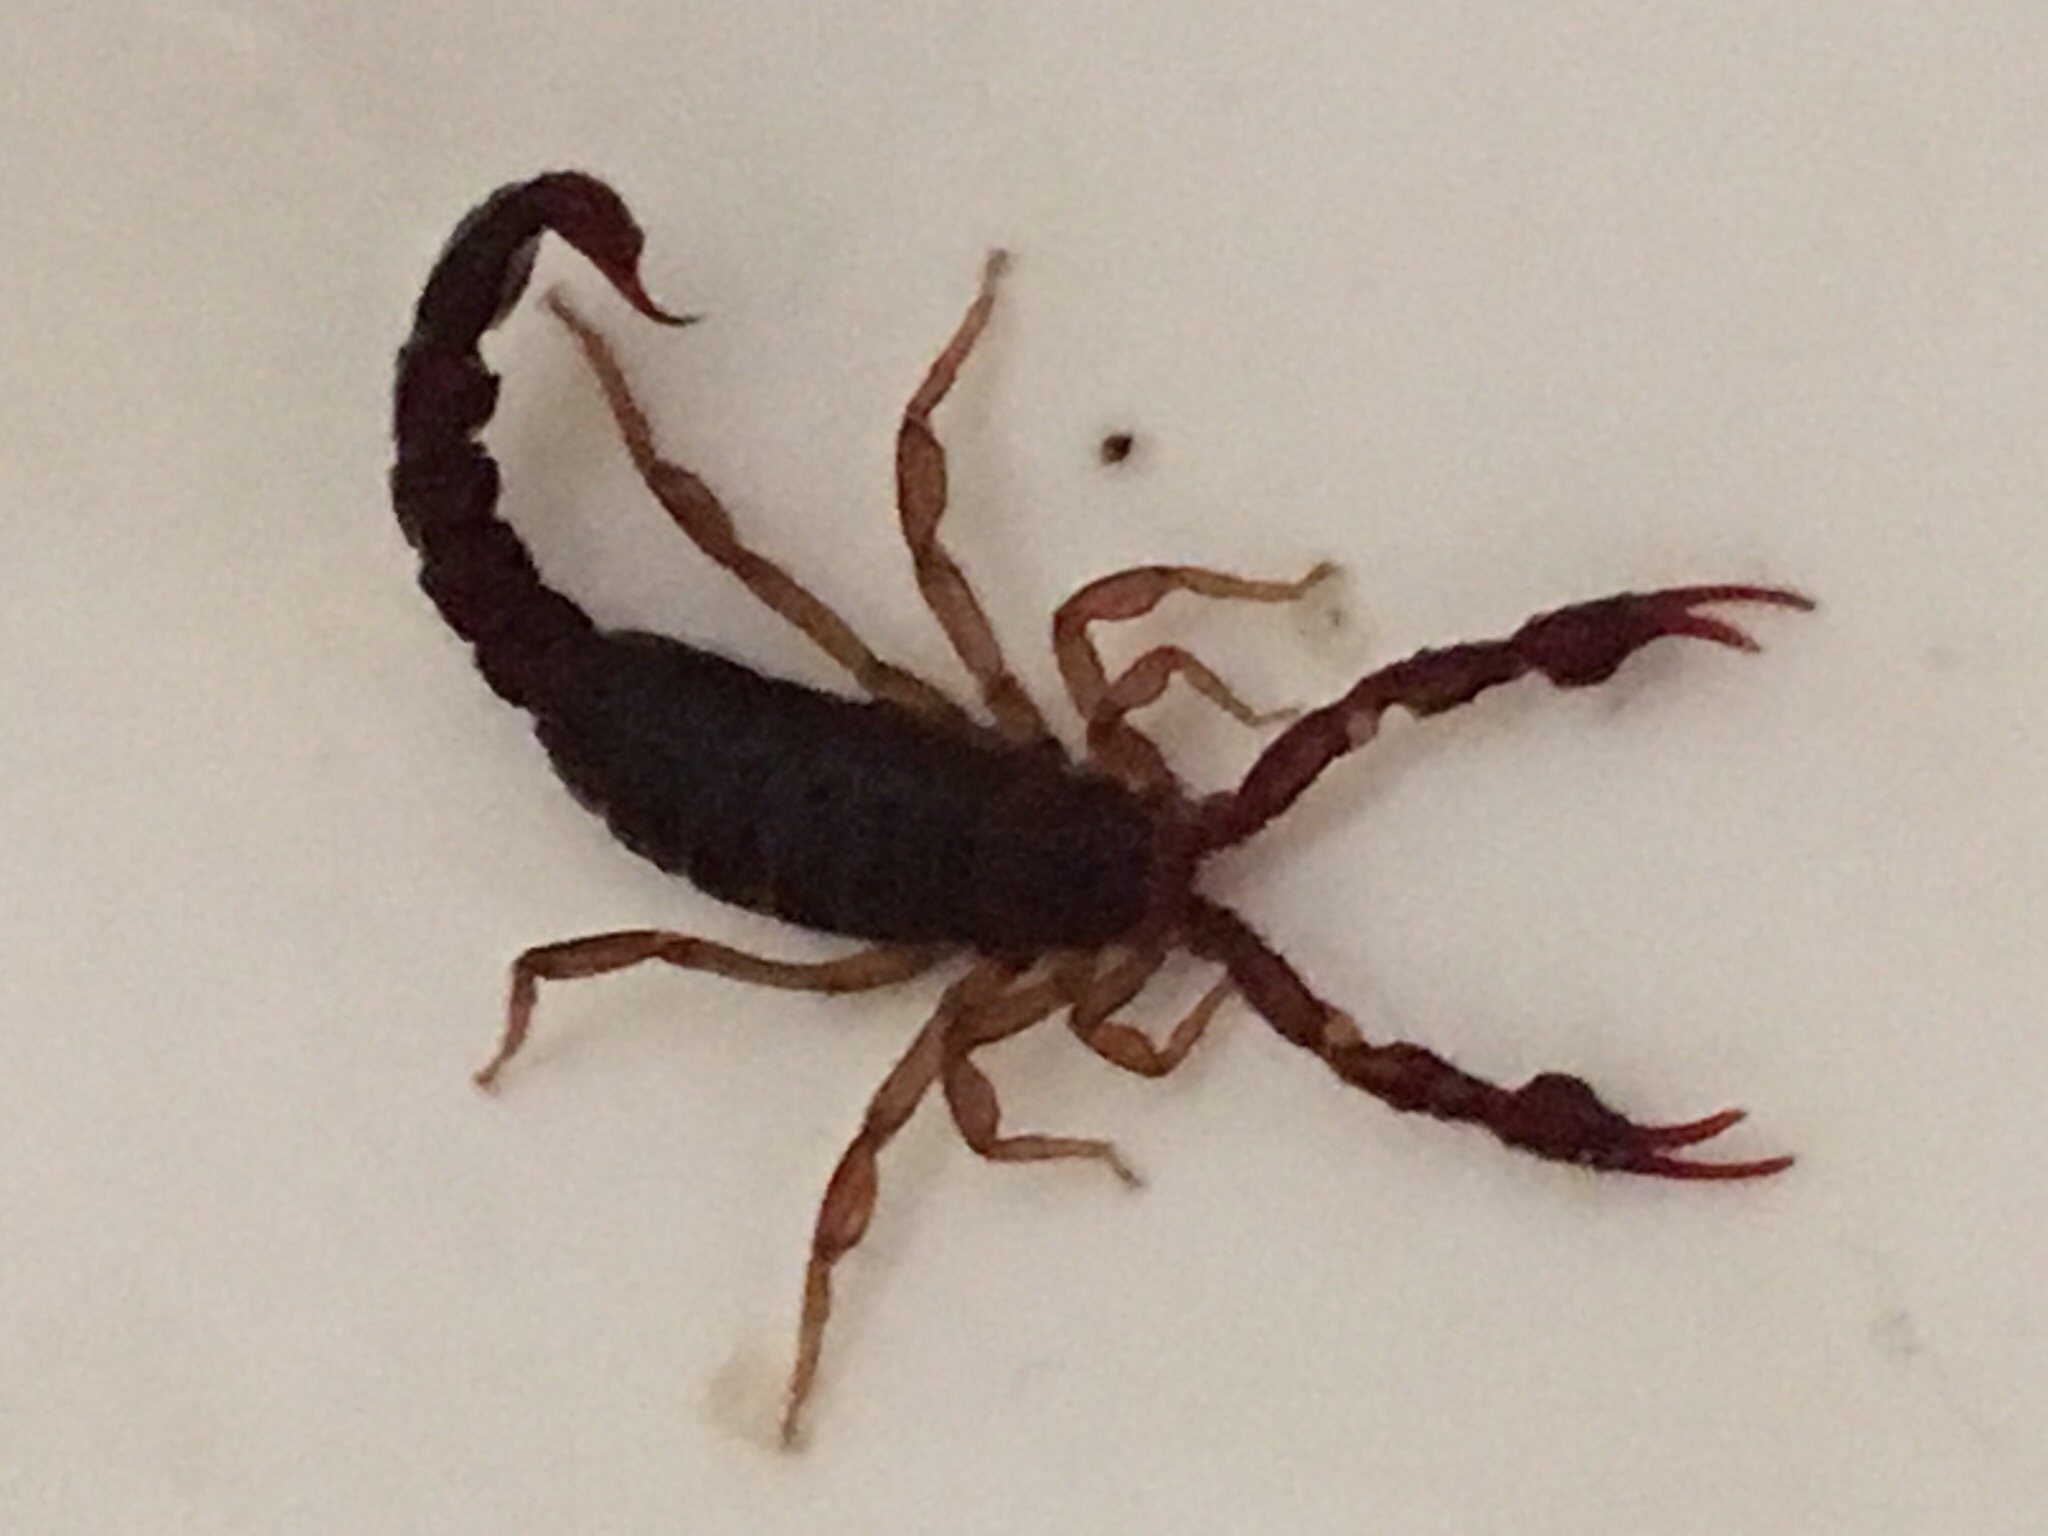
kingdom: Animalia
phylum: Arthropoda
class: Arachnida
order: Scorpiones
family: Vaejovidae
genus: Vaejovis
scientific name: Vaejovis carolinianus
